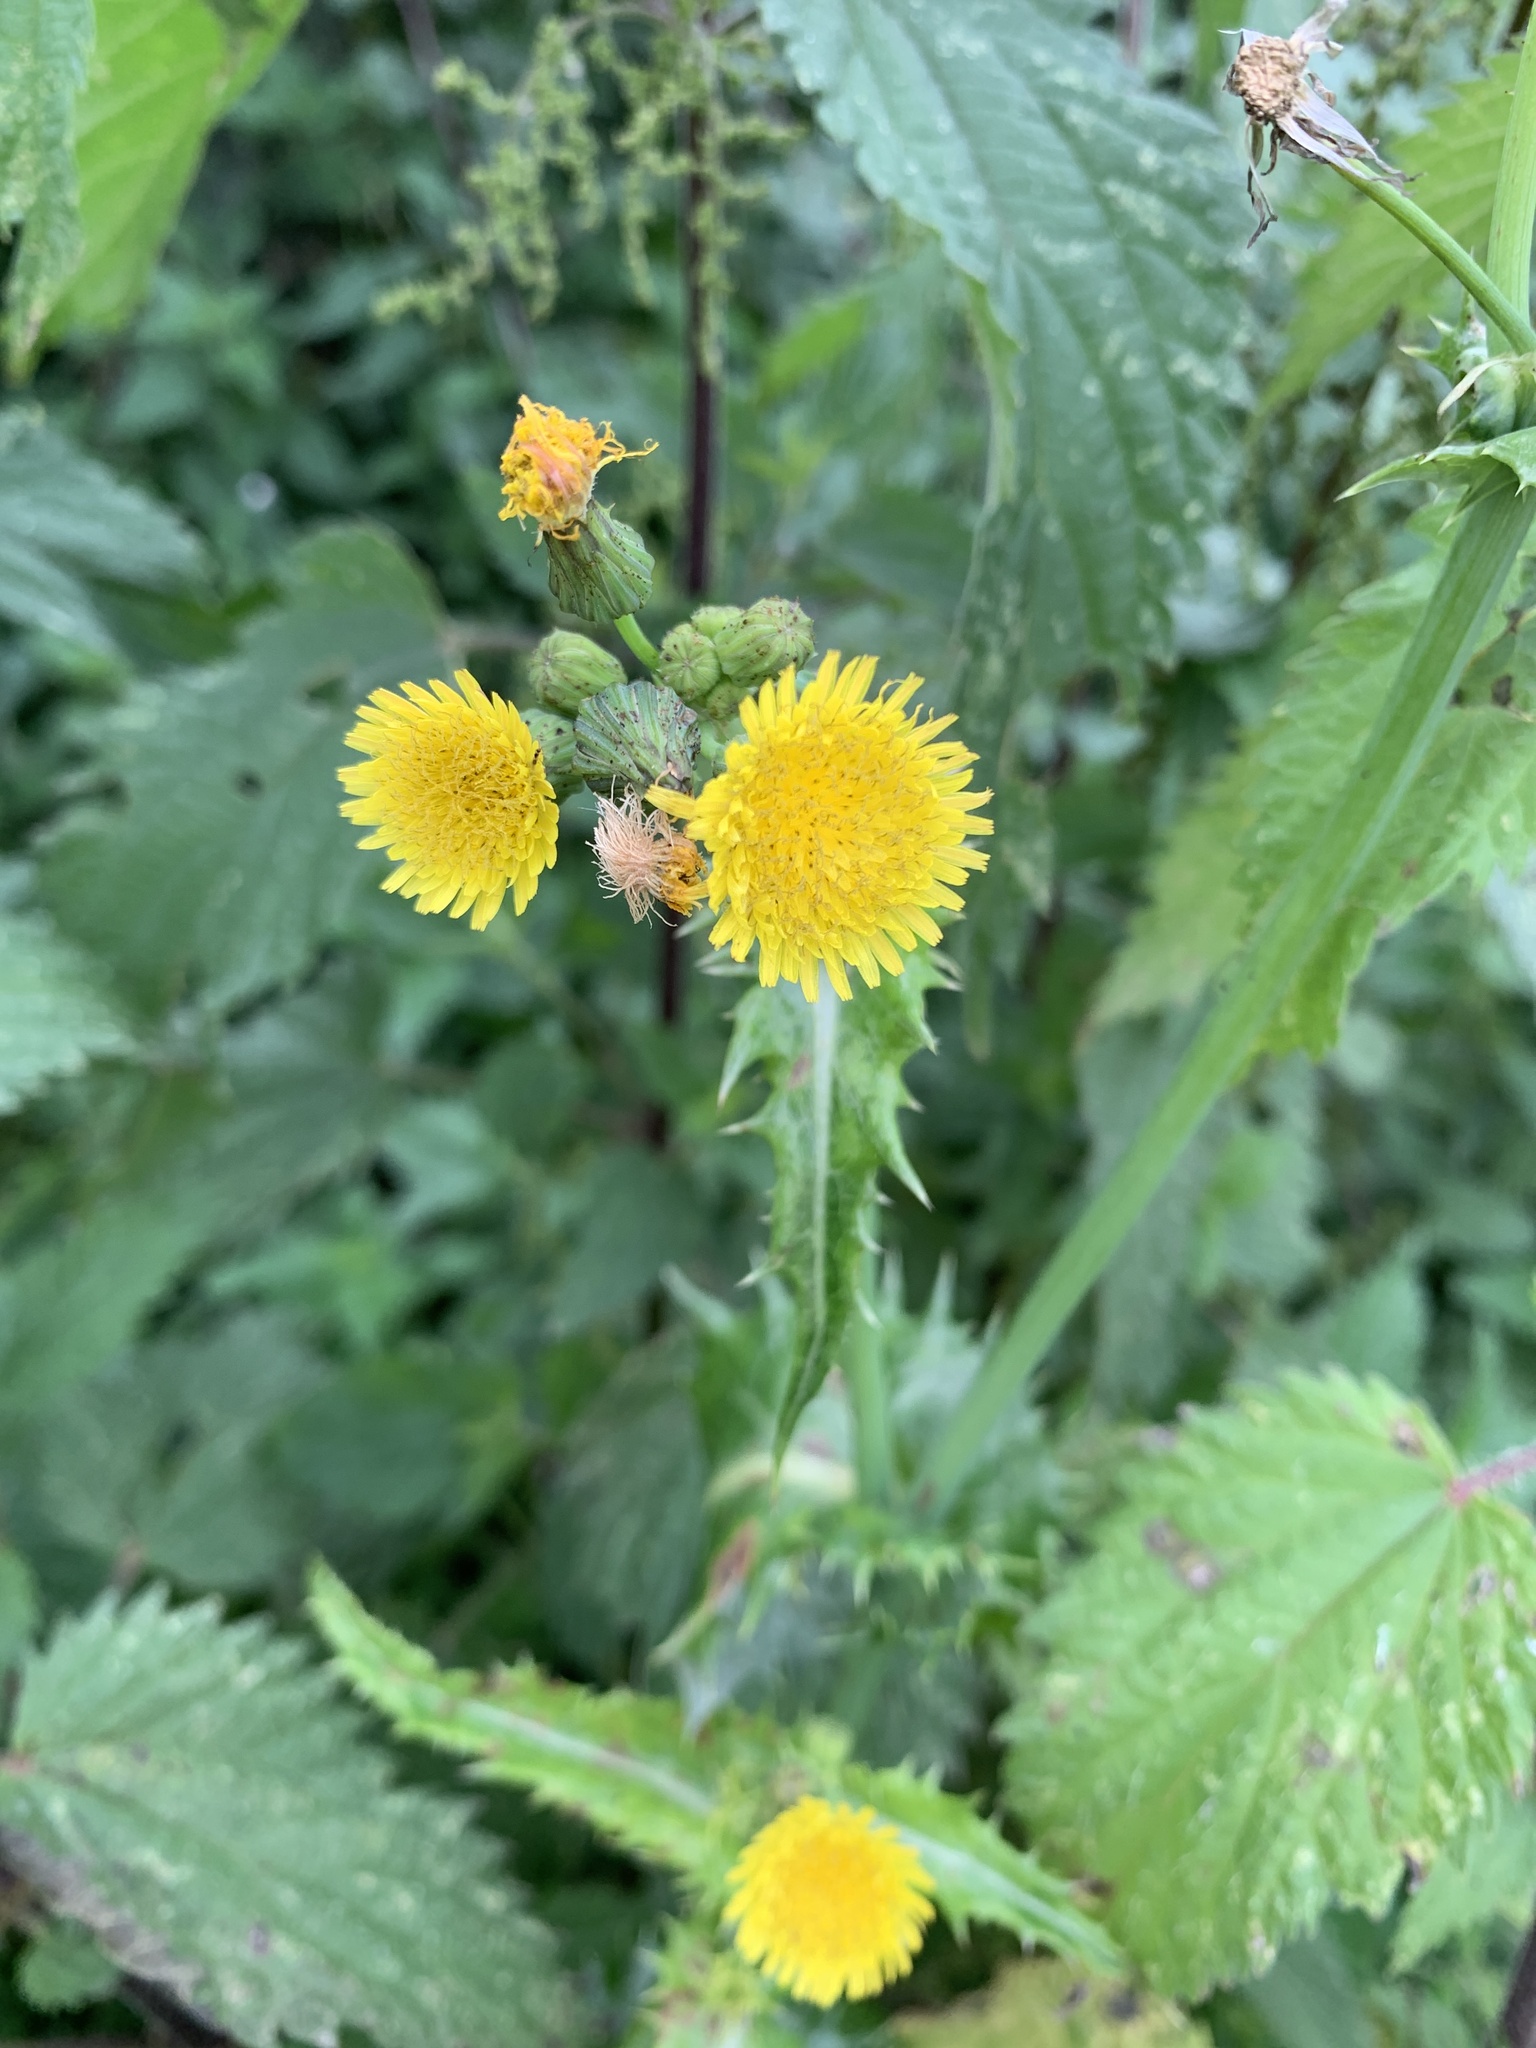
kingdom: Plantae
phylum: Tracheophyta
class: Magnoliopsida
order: Asterales
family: Asteraceae
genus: Sonchus
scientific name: Sonchus asper
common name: Prickly sow-thistle
